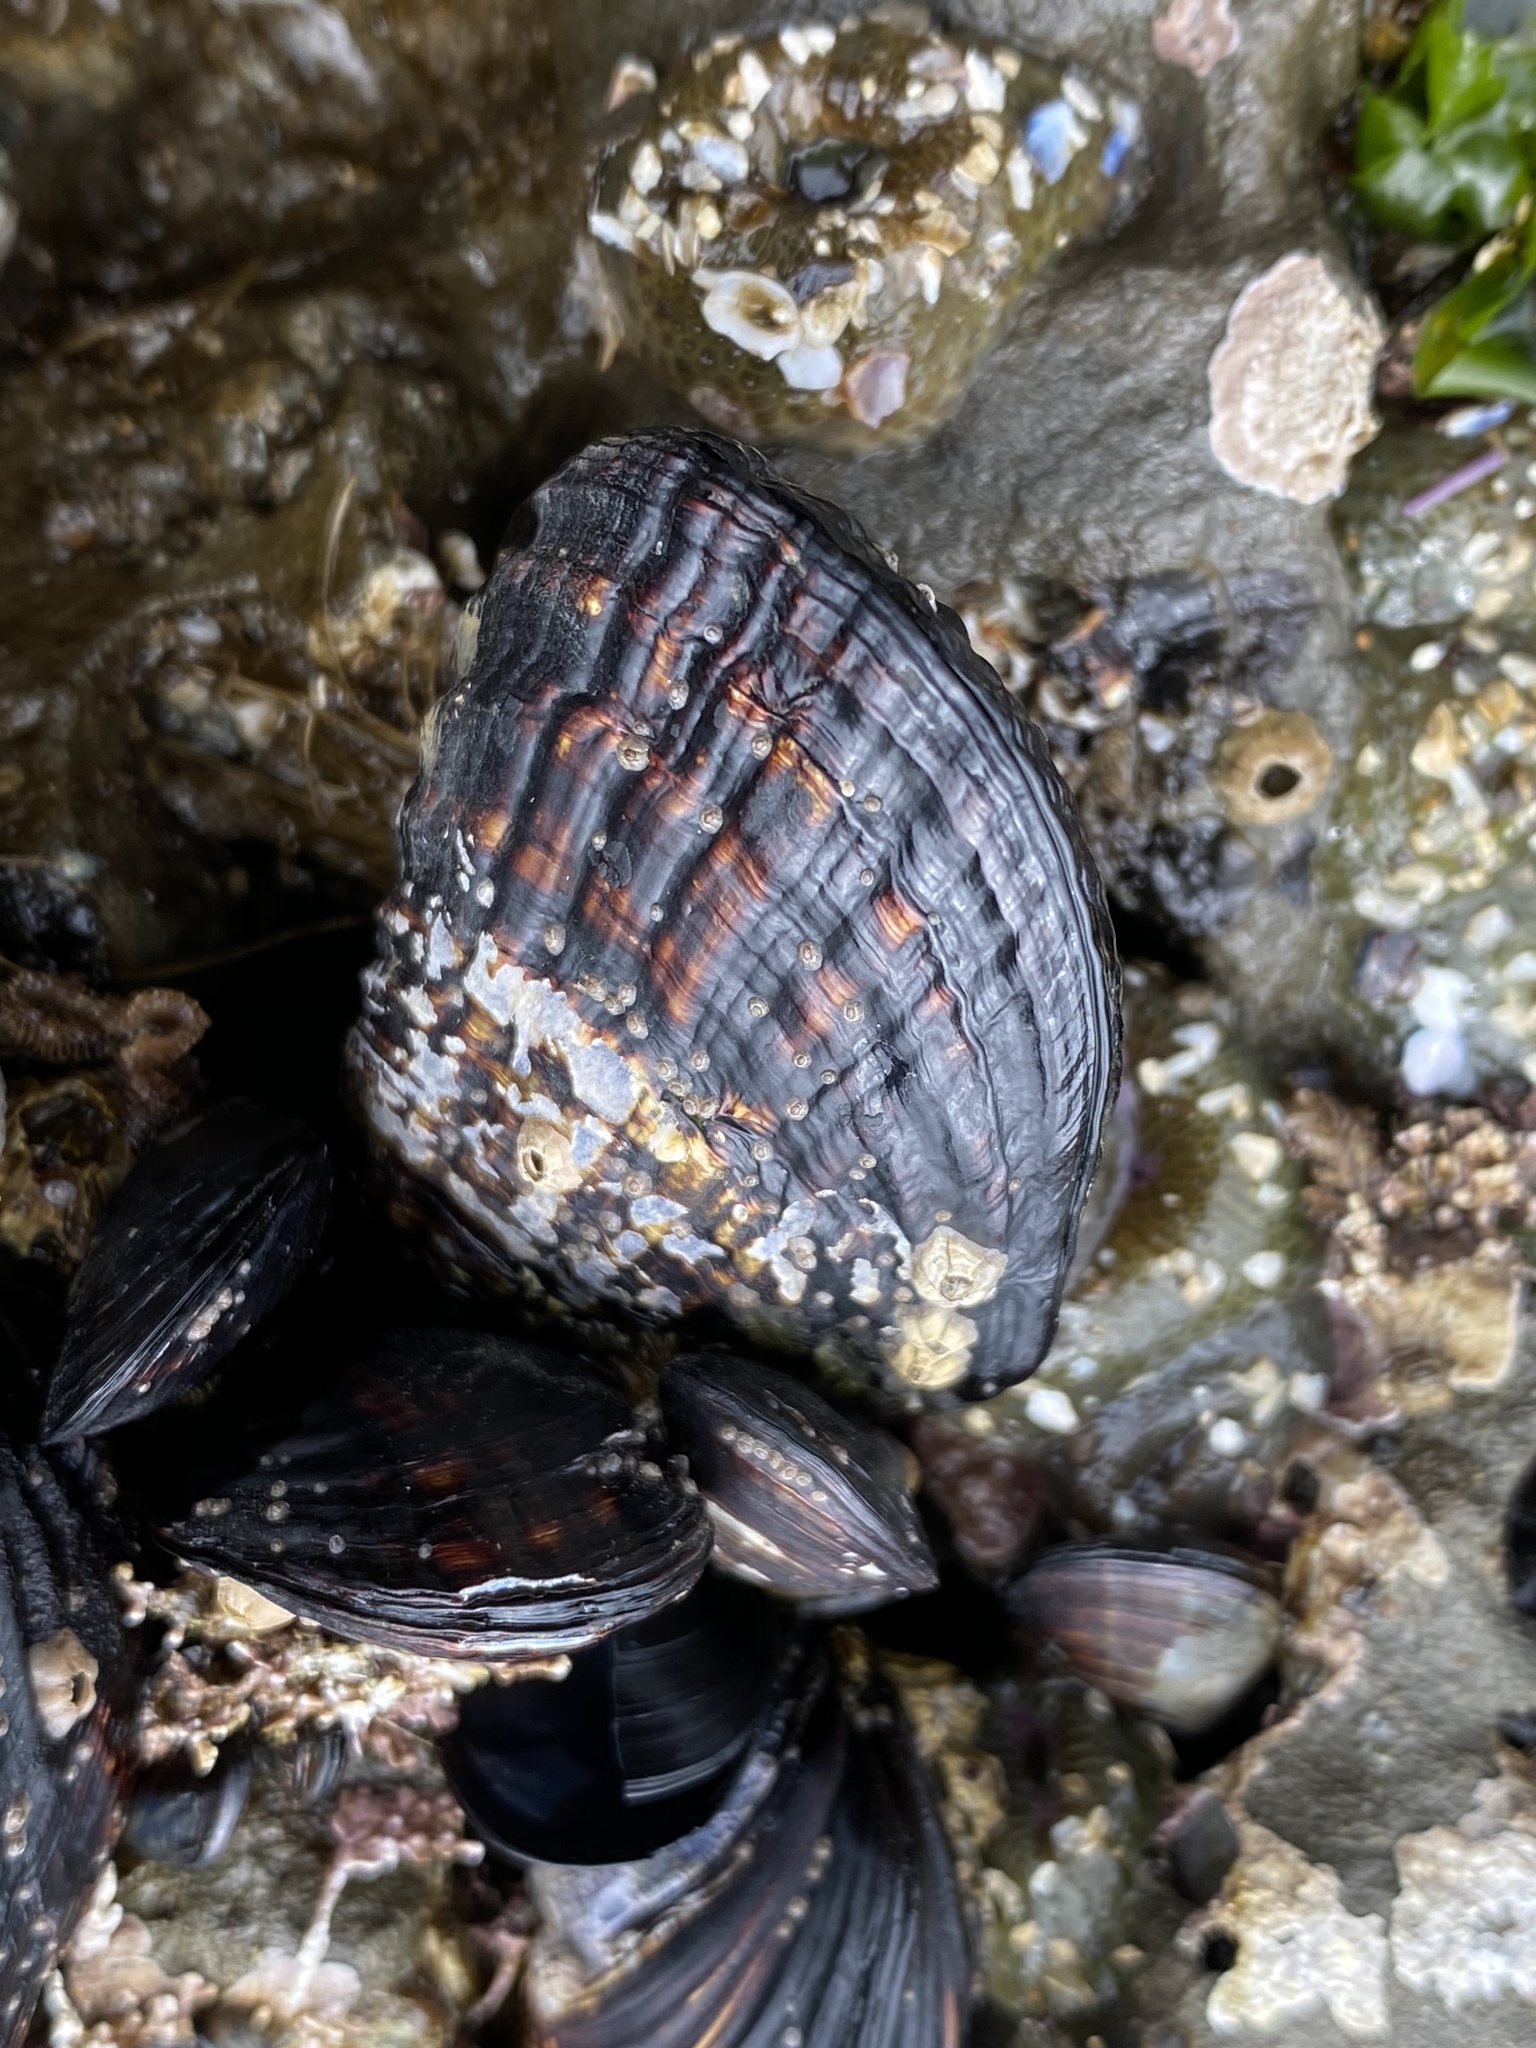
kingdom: Animalia
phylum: Mollusca
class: Bivalvia
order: Mytilida
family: Mytilidae
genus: Mytilus
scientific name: Mytilus californianus
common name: California mussel
